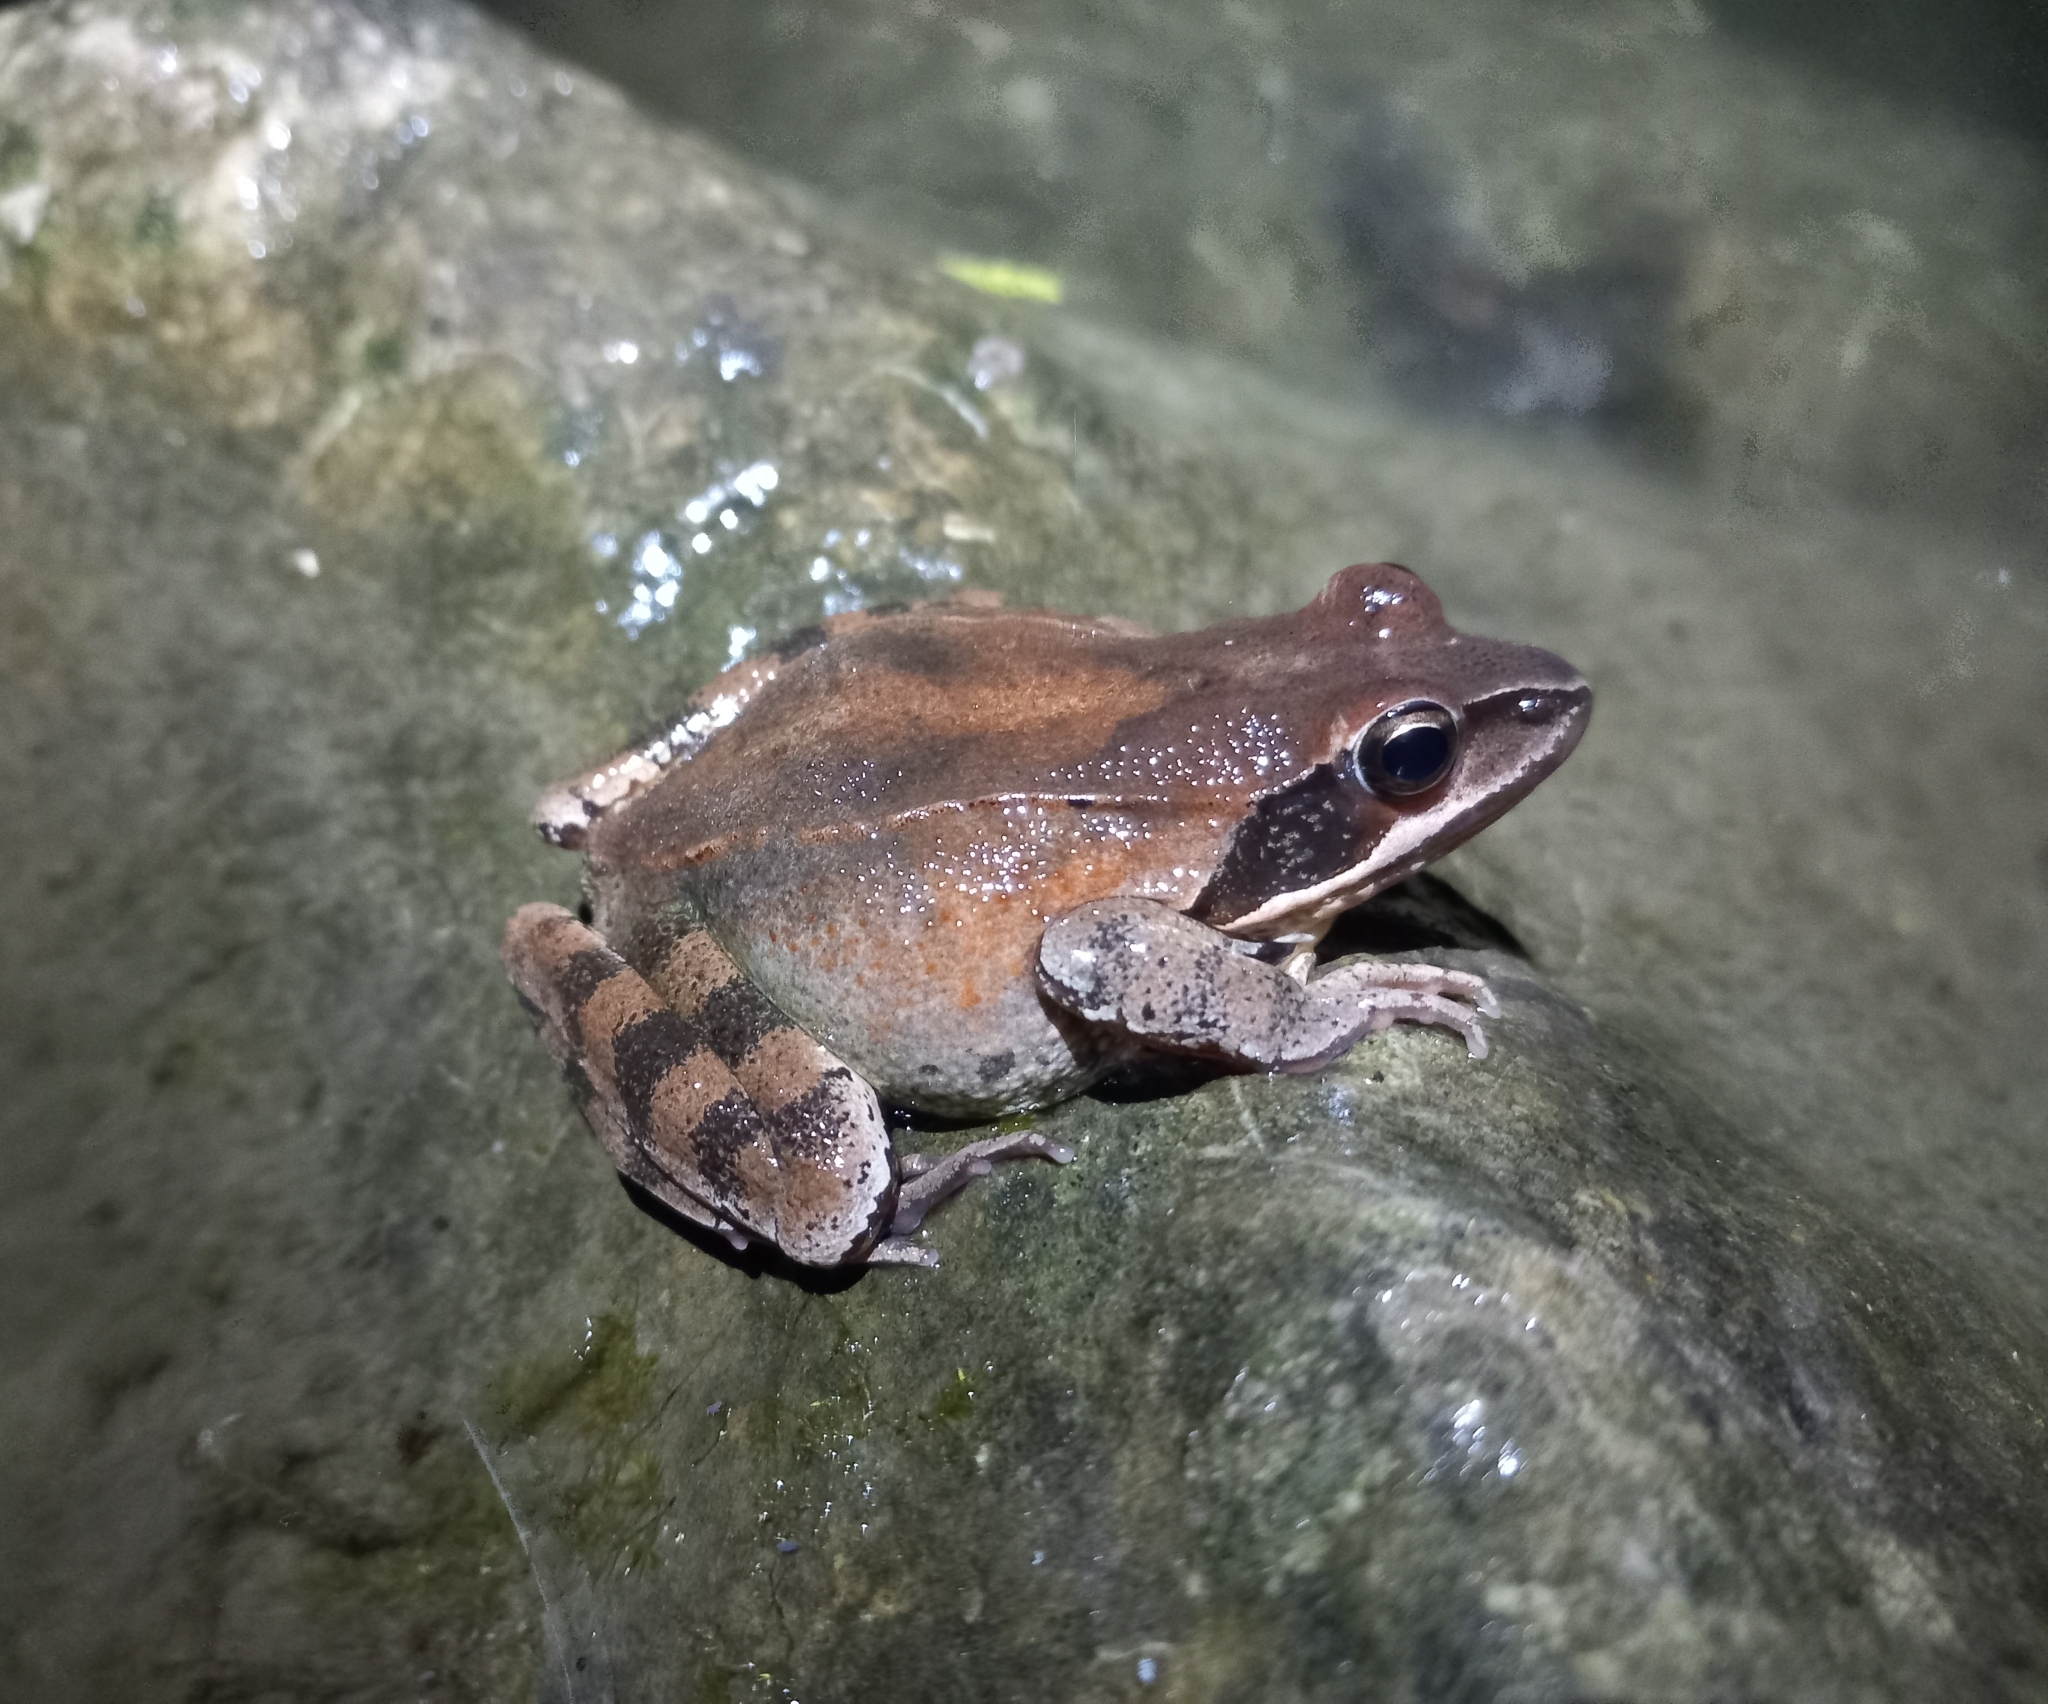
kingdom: Animalia
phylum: Chordata
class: Amphibia
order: Anura
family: Ranidae
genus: Rana
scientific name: Rana dalmatina
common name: Agile frog
